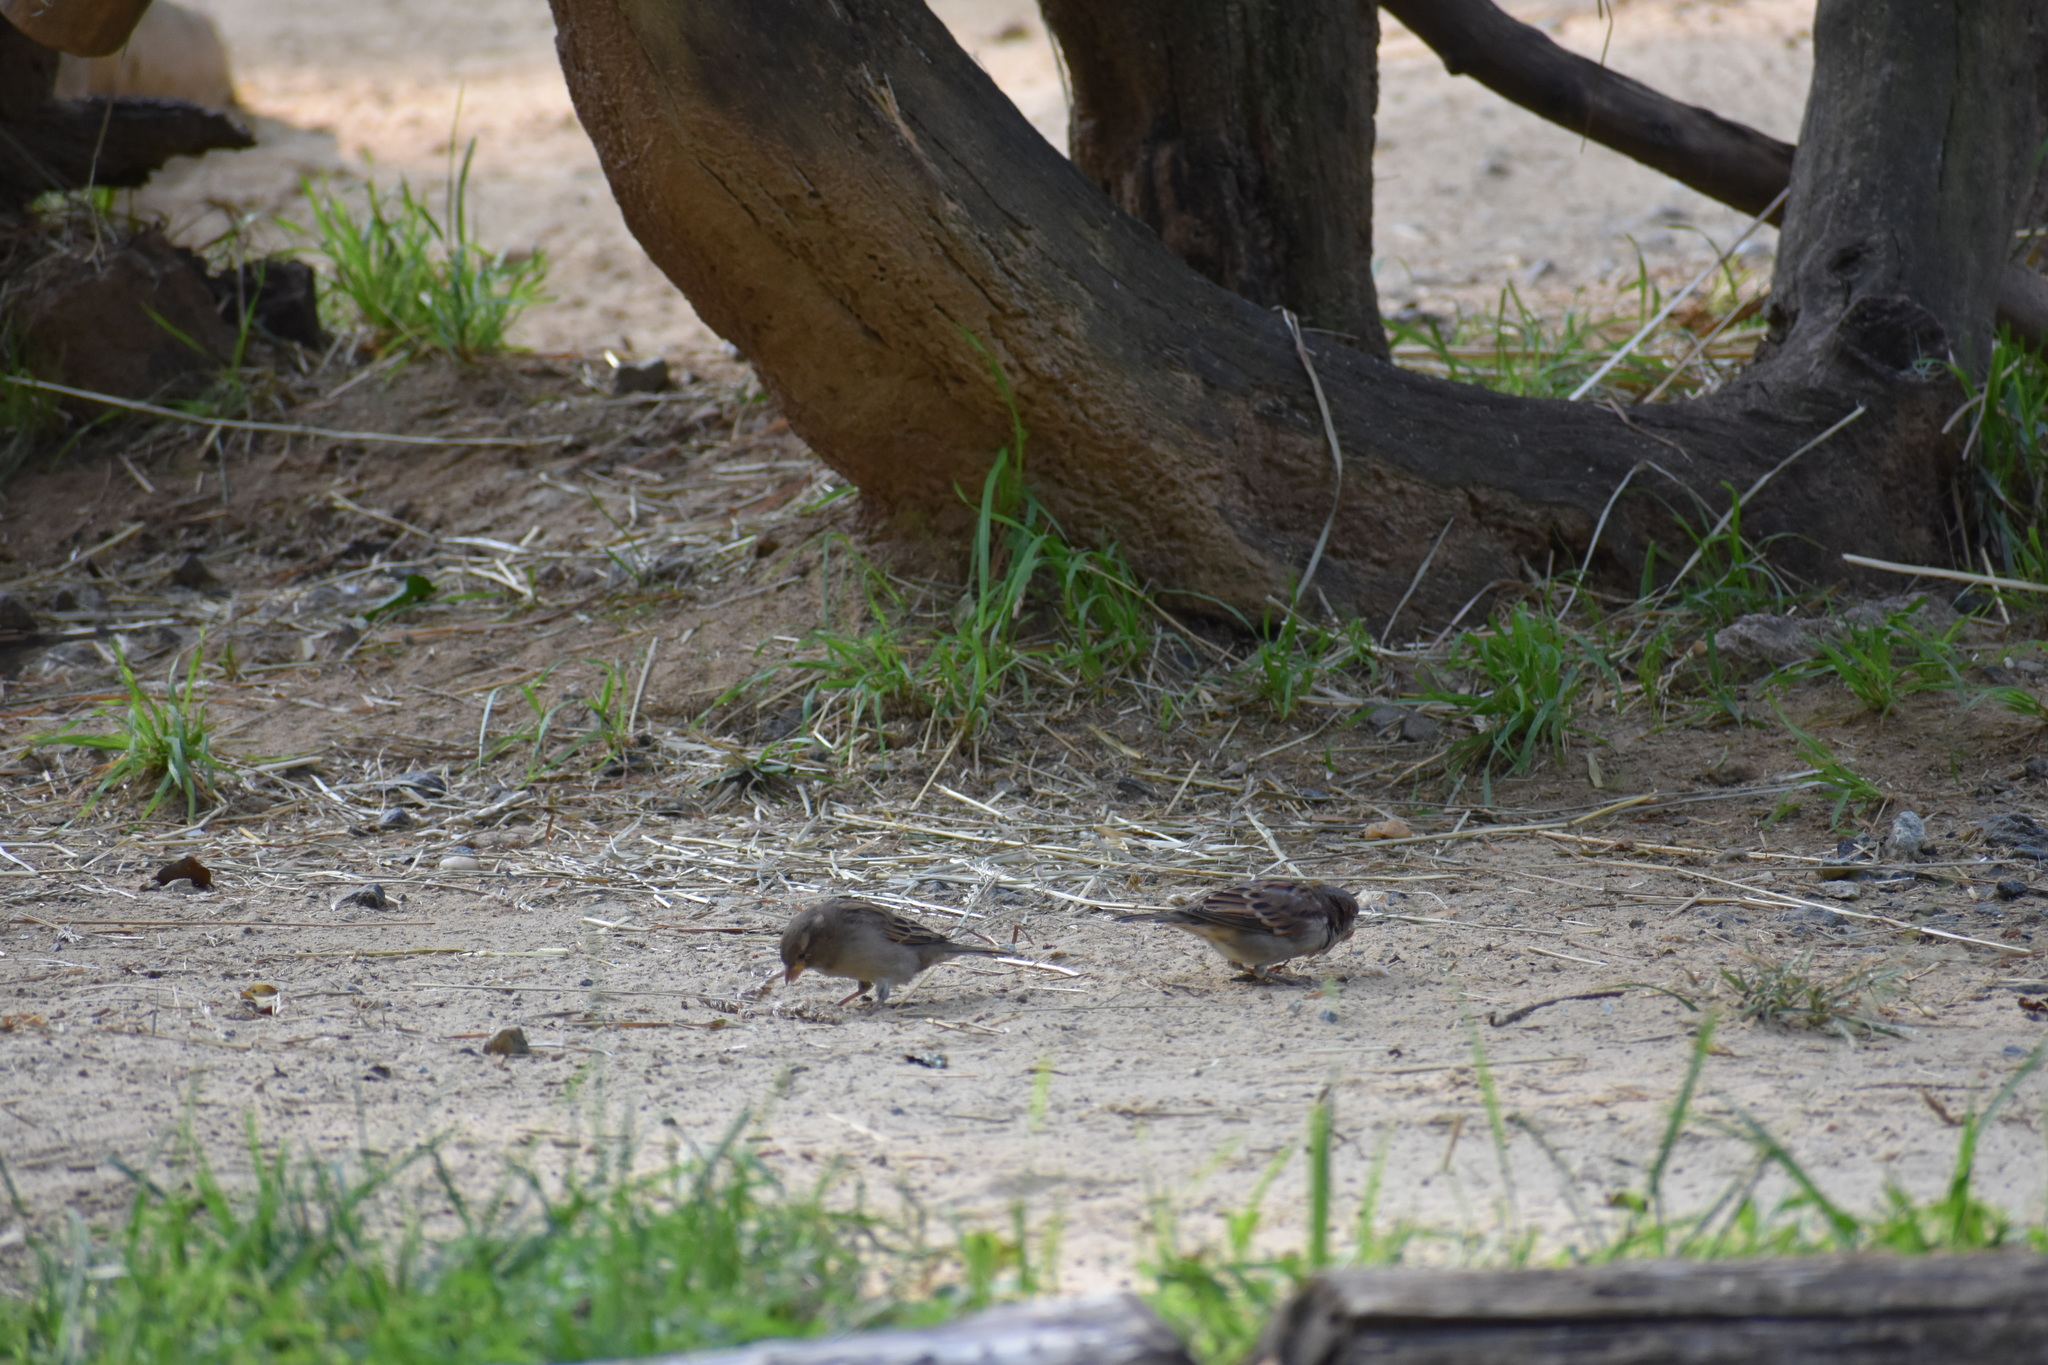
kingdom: Animalia
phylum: Chordata
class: Aves
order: Passeriformes
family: Passeridae
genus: Passer
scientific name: Passer domesticus
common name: House sparrow
